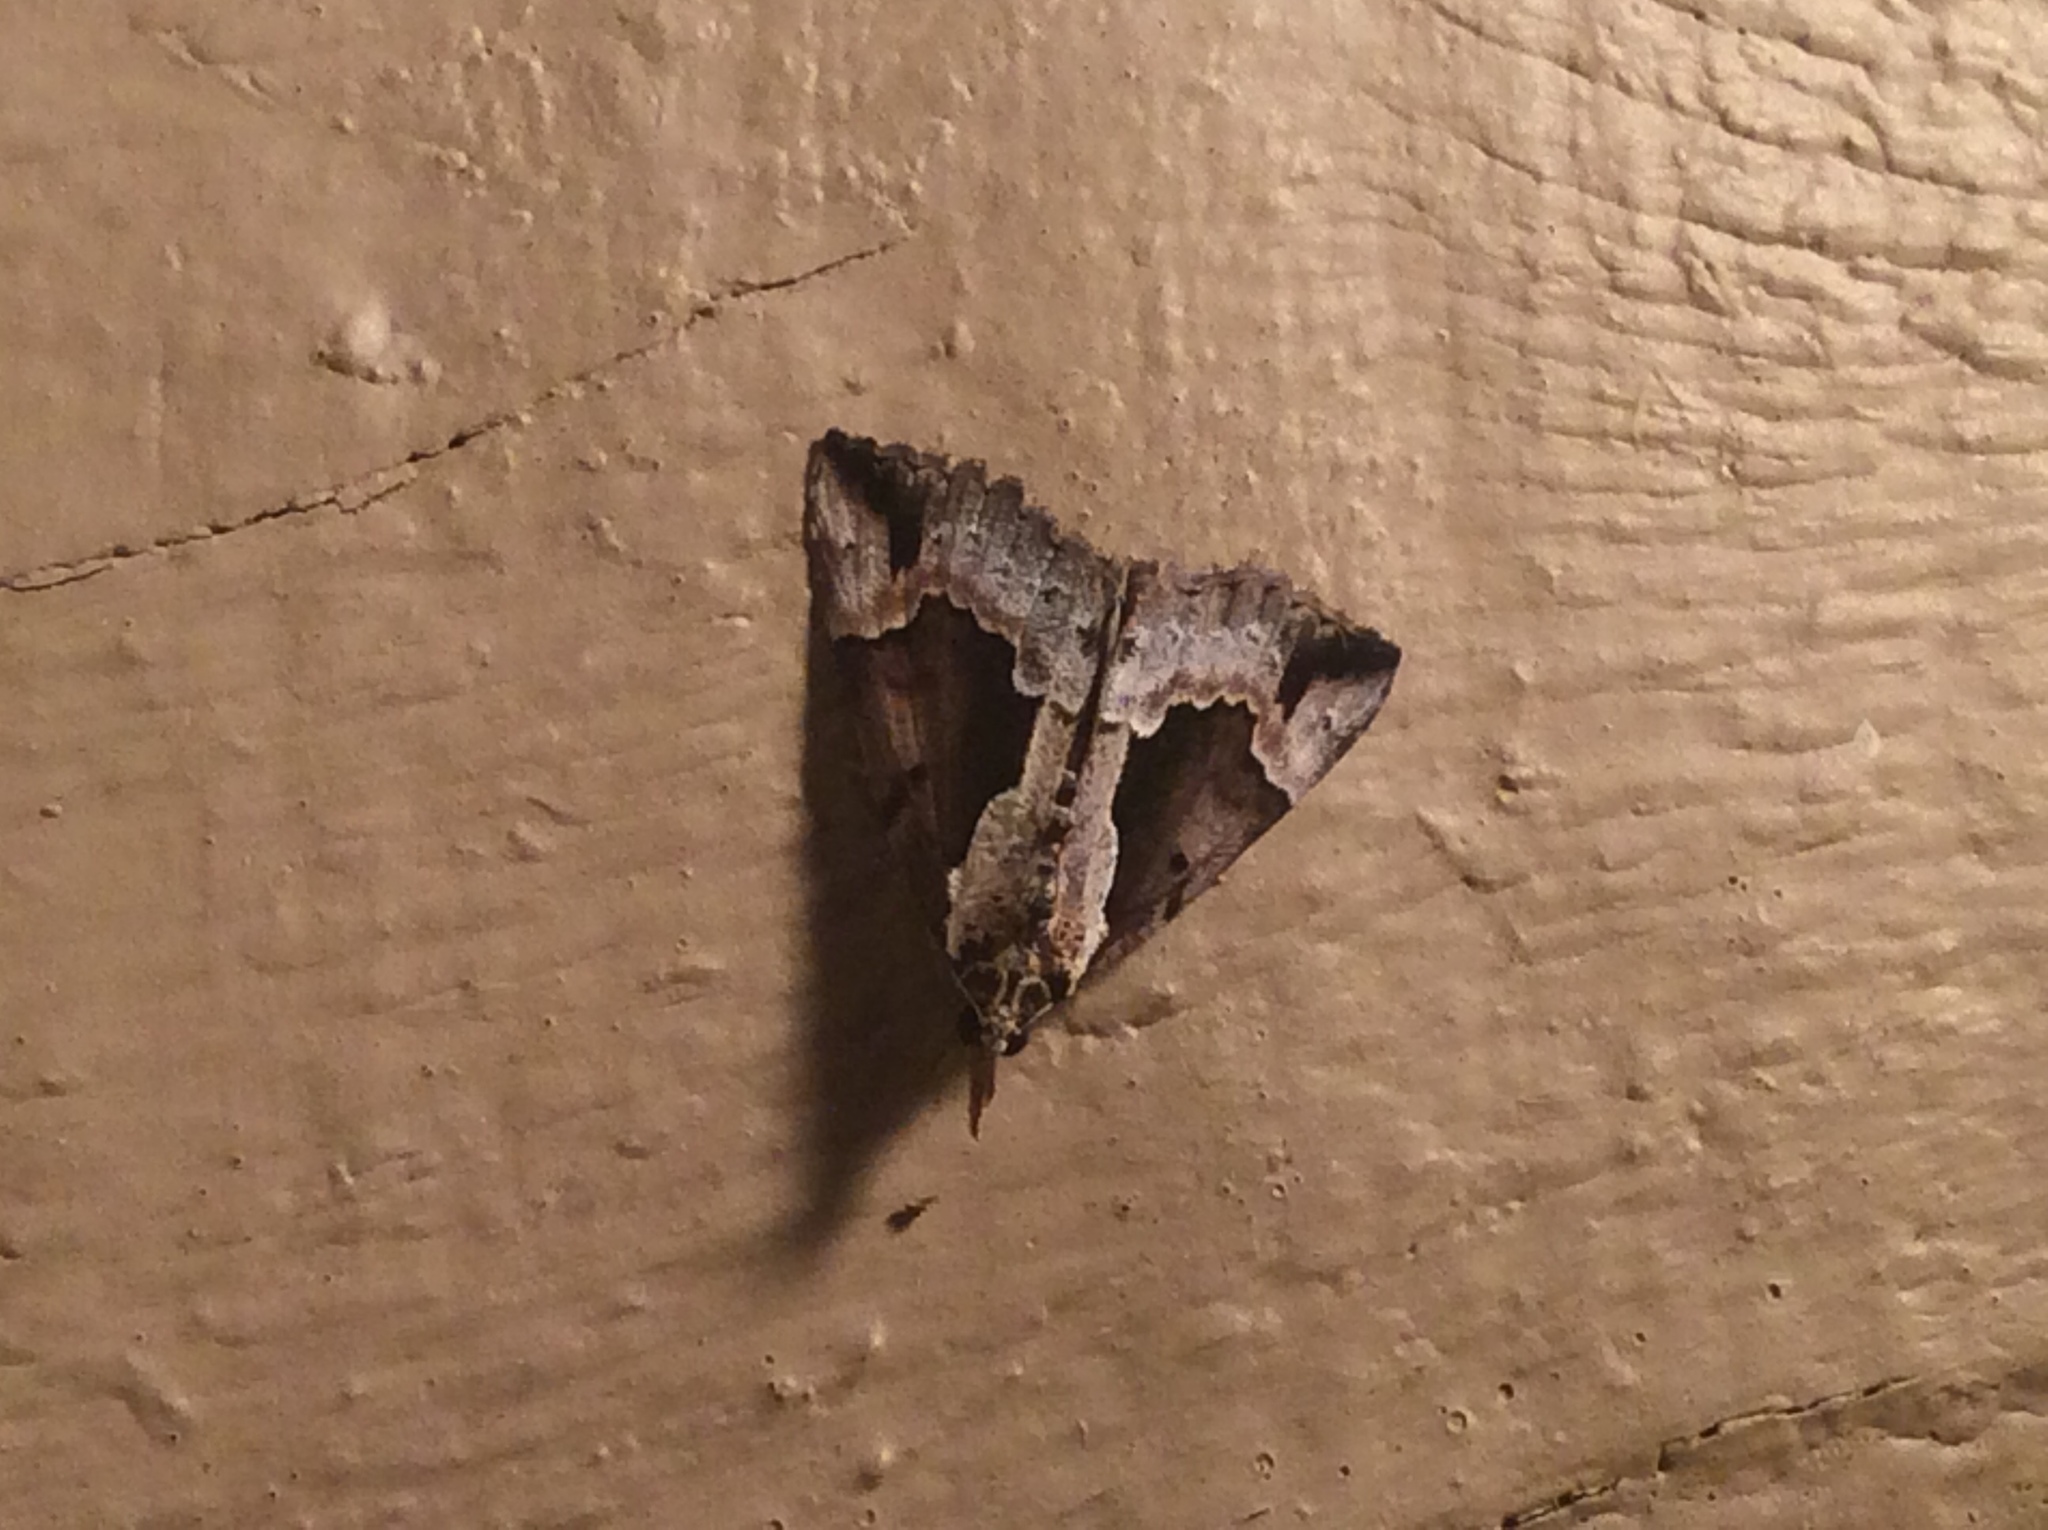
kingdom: Animalia
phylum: Arthropoda
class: Insecta
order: Lepidoptera
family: Erebidae
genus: Hypena
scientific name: Hypena baltimoralis
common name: Baltimore snout
